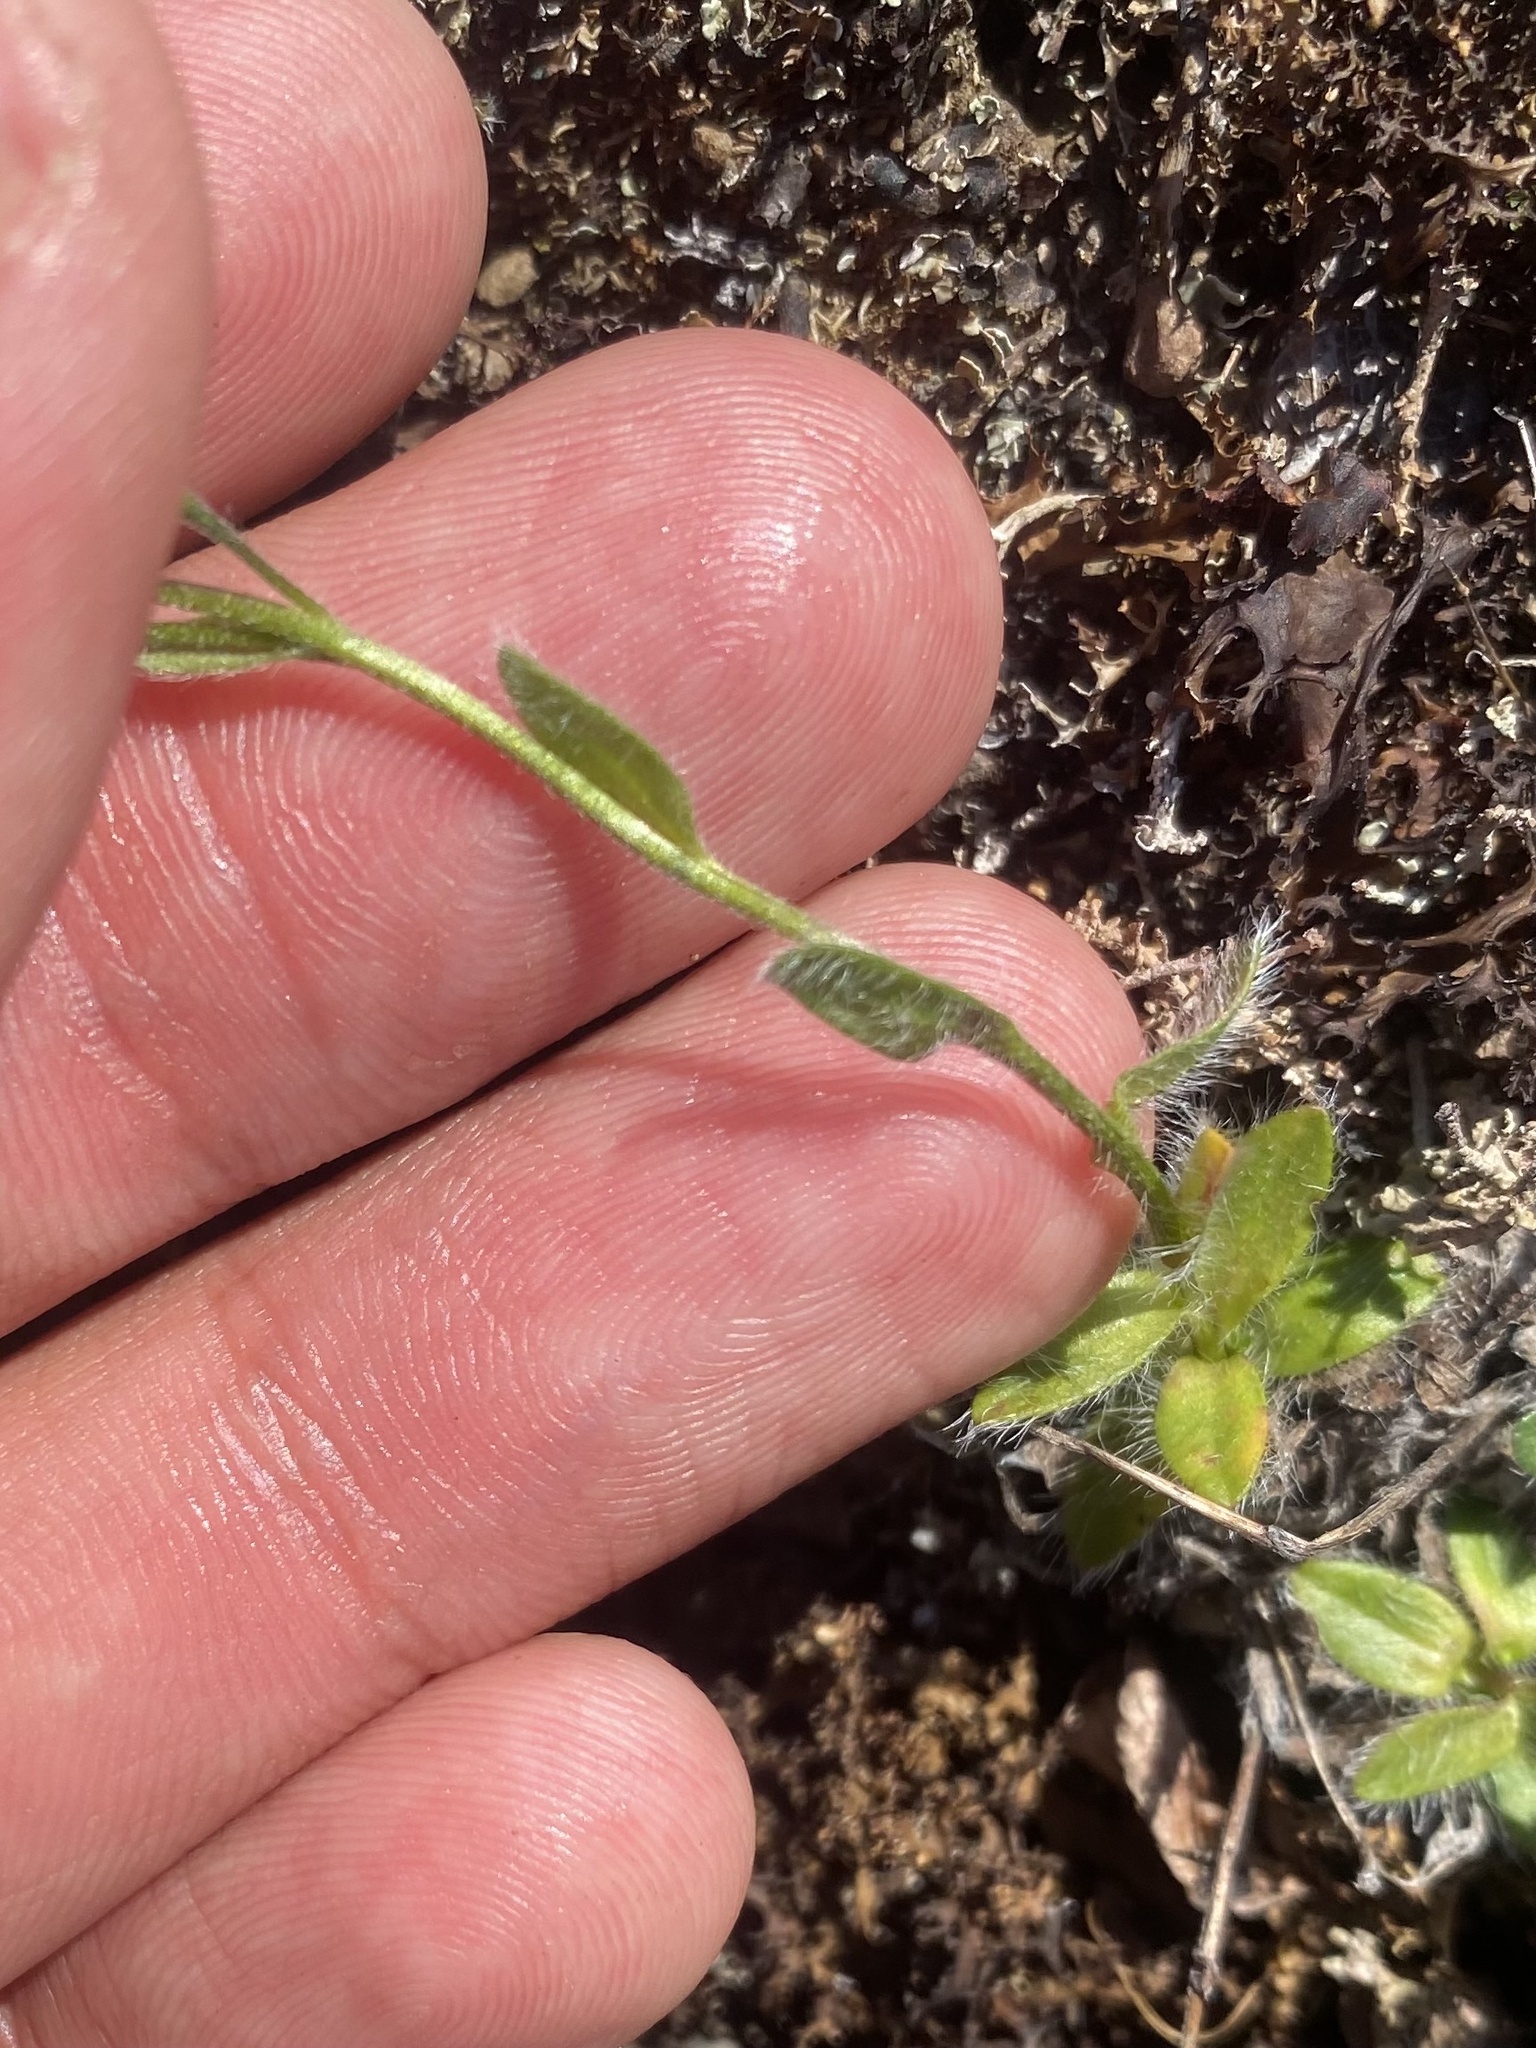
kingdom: Plantae
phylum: Tracheophyta
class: Magnoliopsida
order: Boraginales
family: Boraginaceae
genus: Eritrichium
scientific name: Eritrichium villosum
